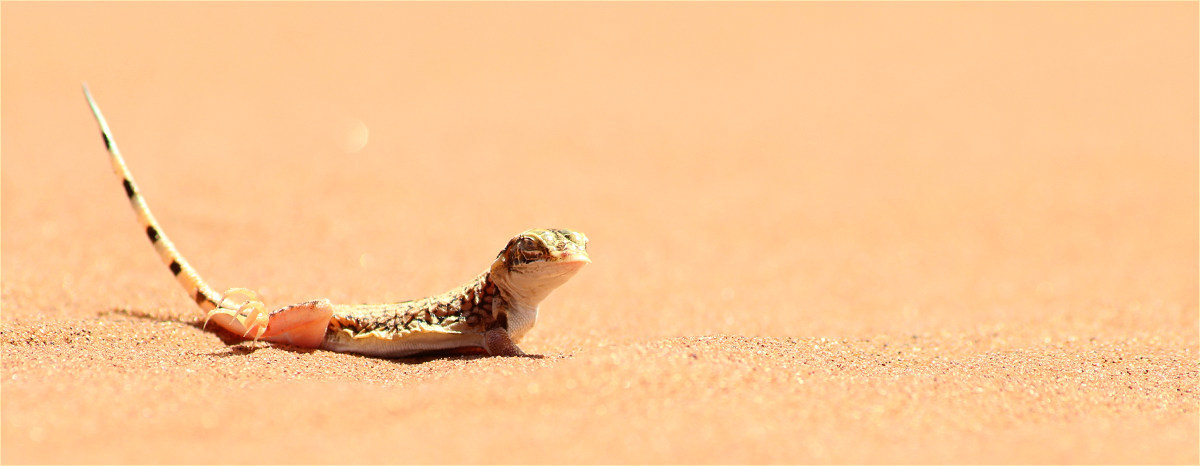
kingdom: Animalia
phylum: Chordata
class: Squamata
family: Lacertidae
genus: Meroles
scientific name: Meroles anchietae
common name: Anchieta’s dune or shovel-snouted lizard
